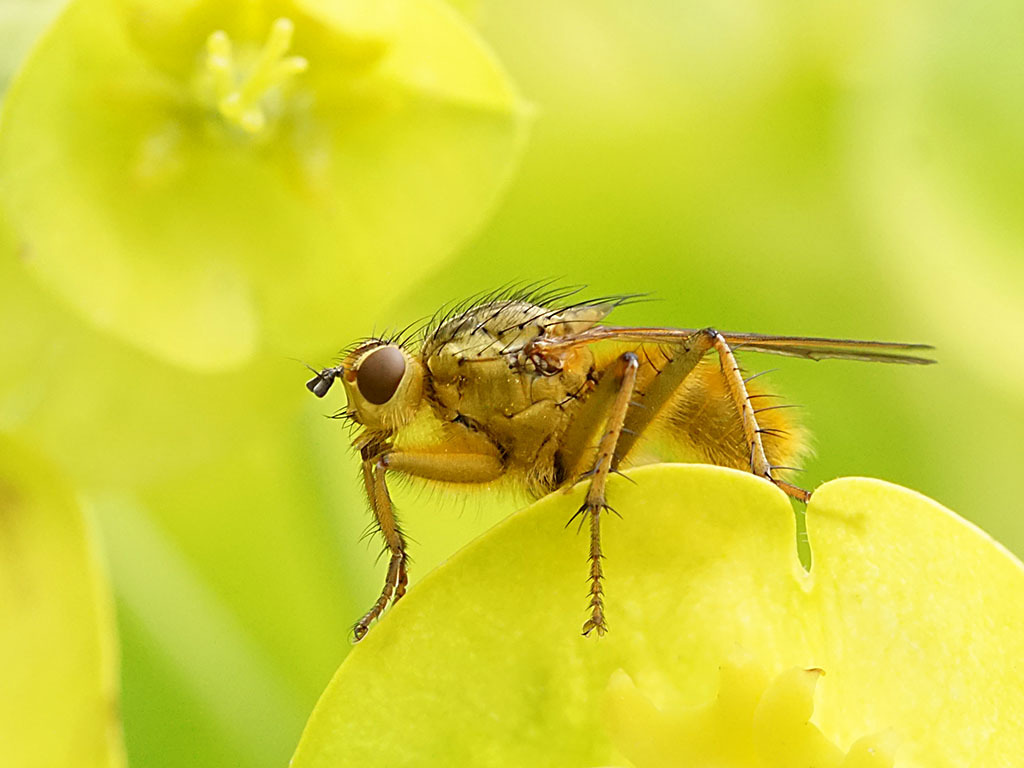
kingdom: Animalia
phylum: Arthropoda
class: Insecta
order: Diptera
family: Scathophagidae
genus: Scathophaga
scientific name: Scathophaga stercoraria
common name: Yellow dung fly
